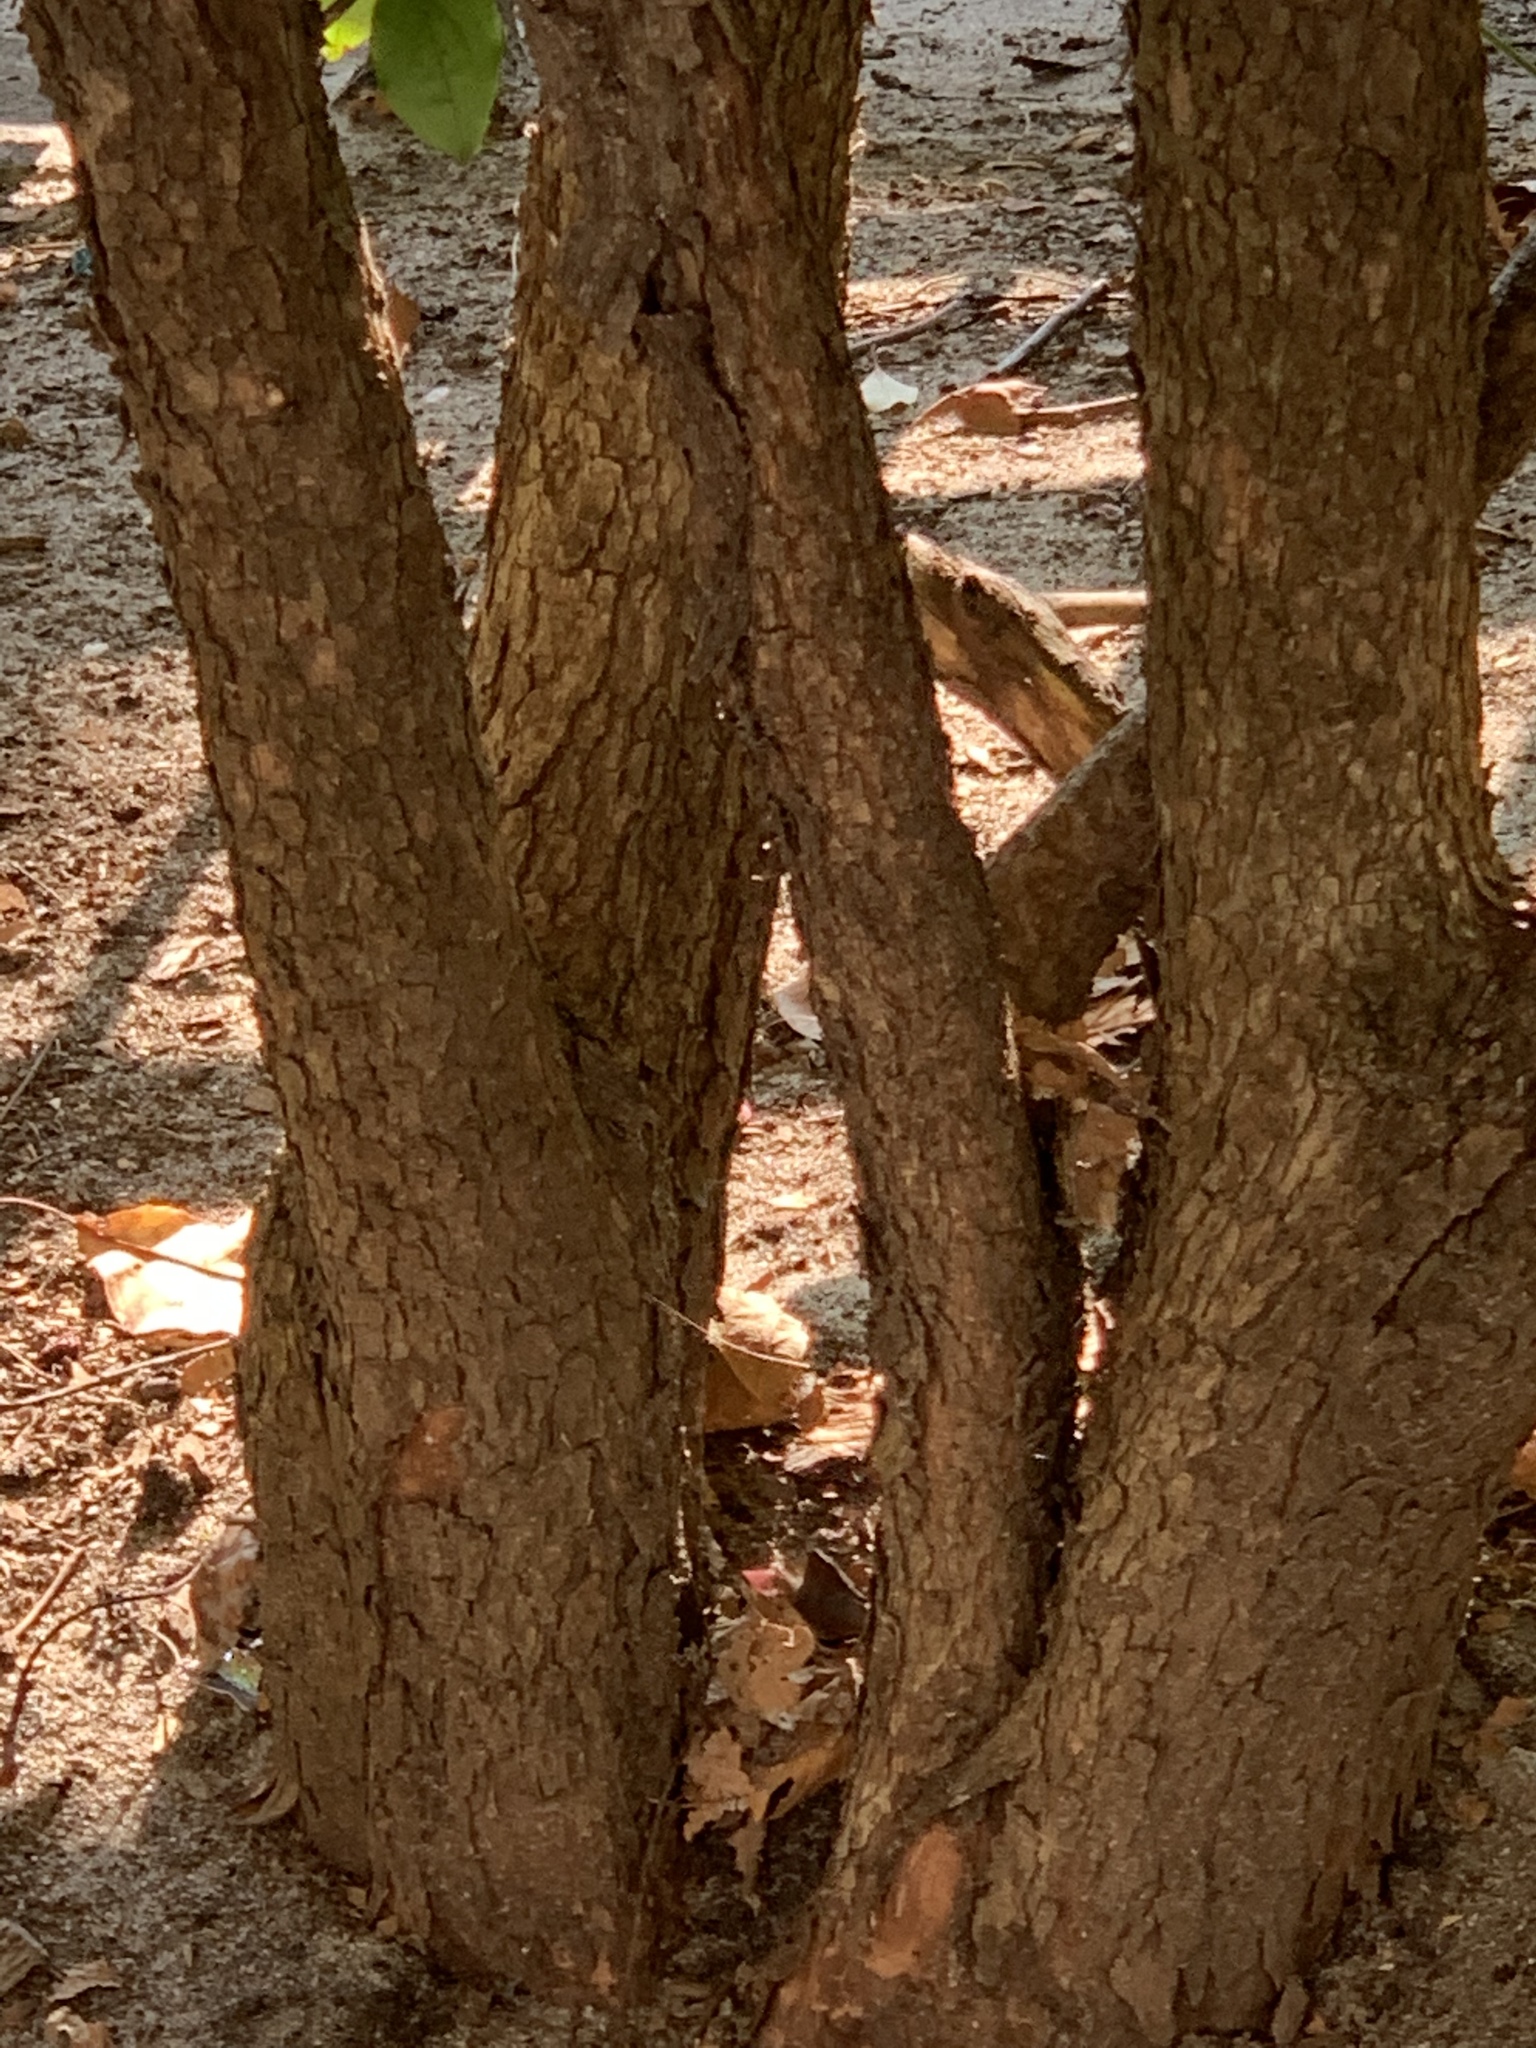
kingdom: Plantae
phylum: Tracheophyta
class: Magnoliopsida
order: Cornales
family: Cornaceae
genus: Cornus
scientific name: Cornus mas
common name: Cornelian-cherry
